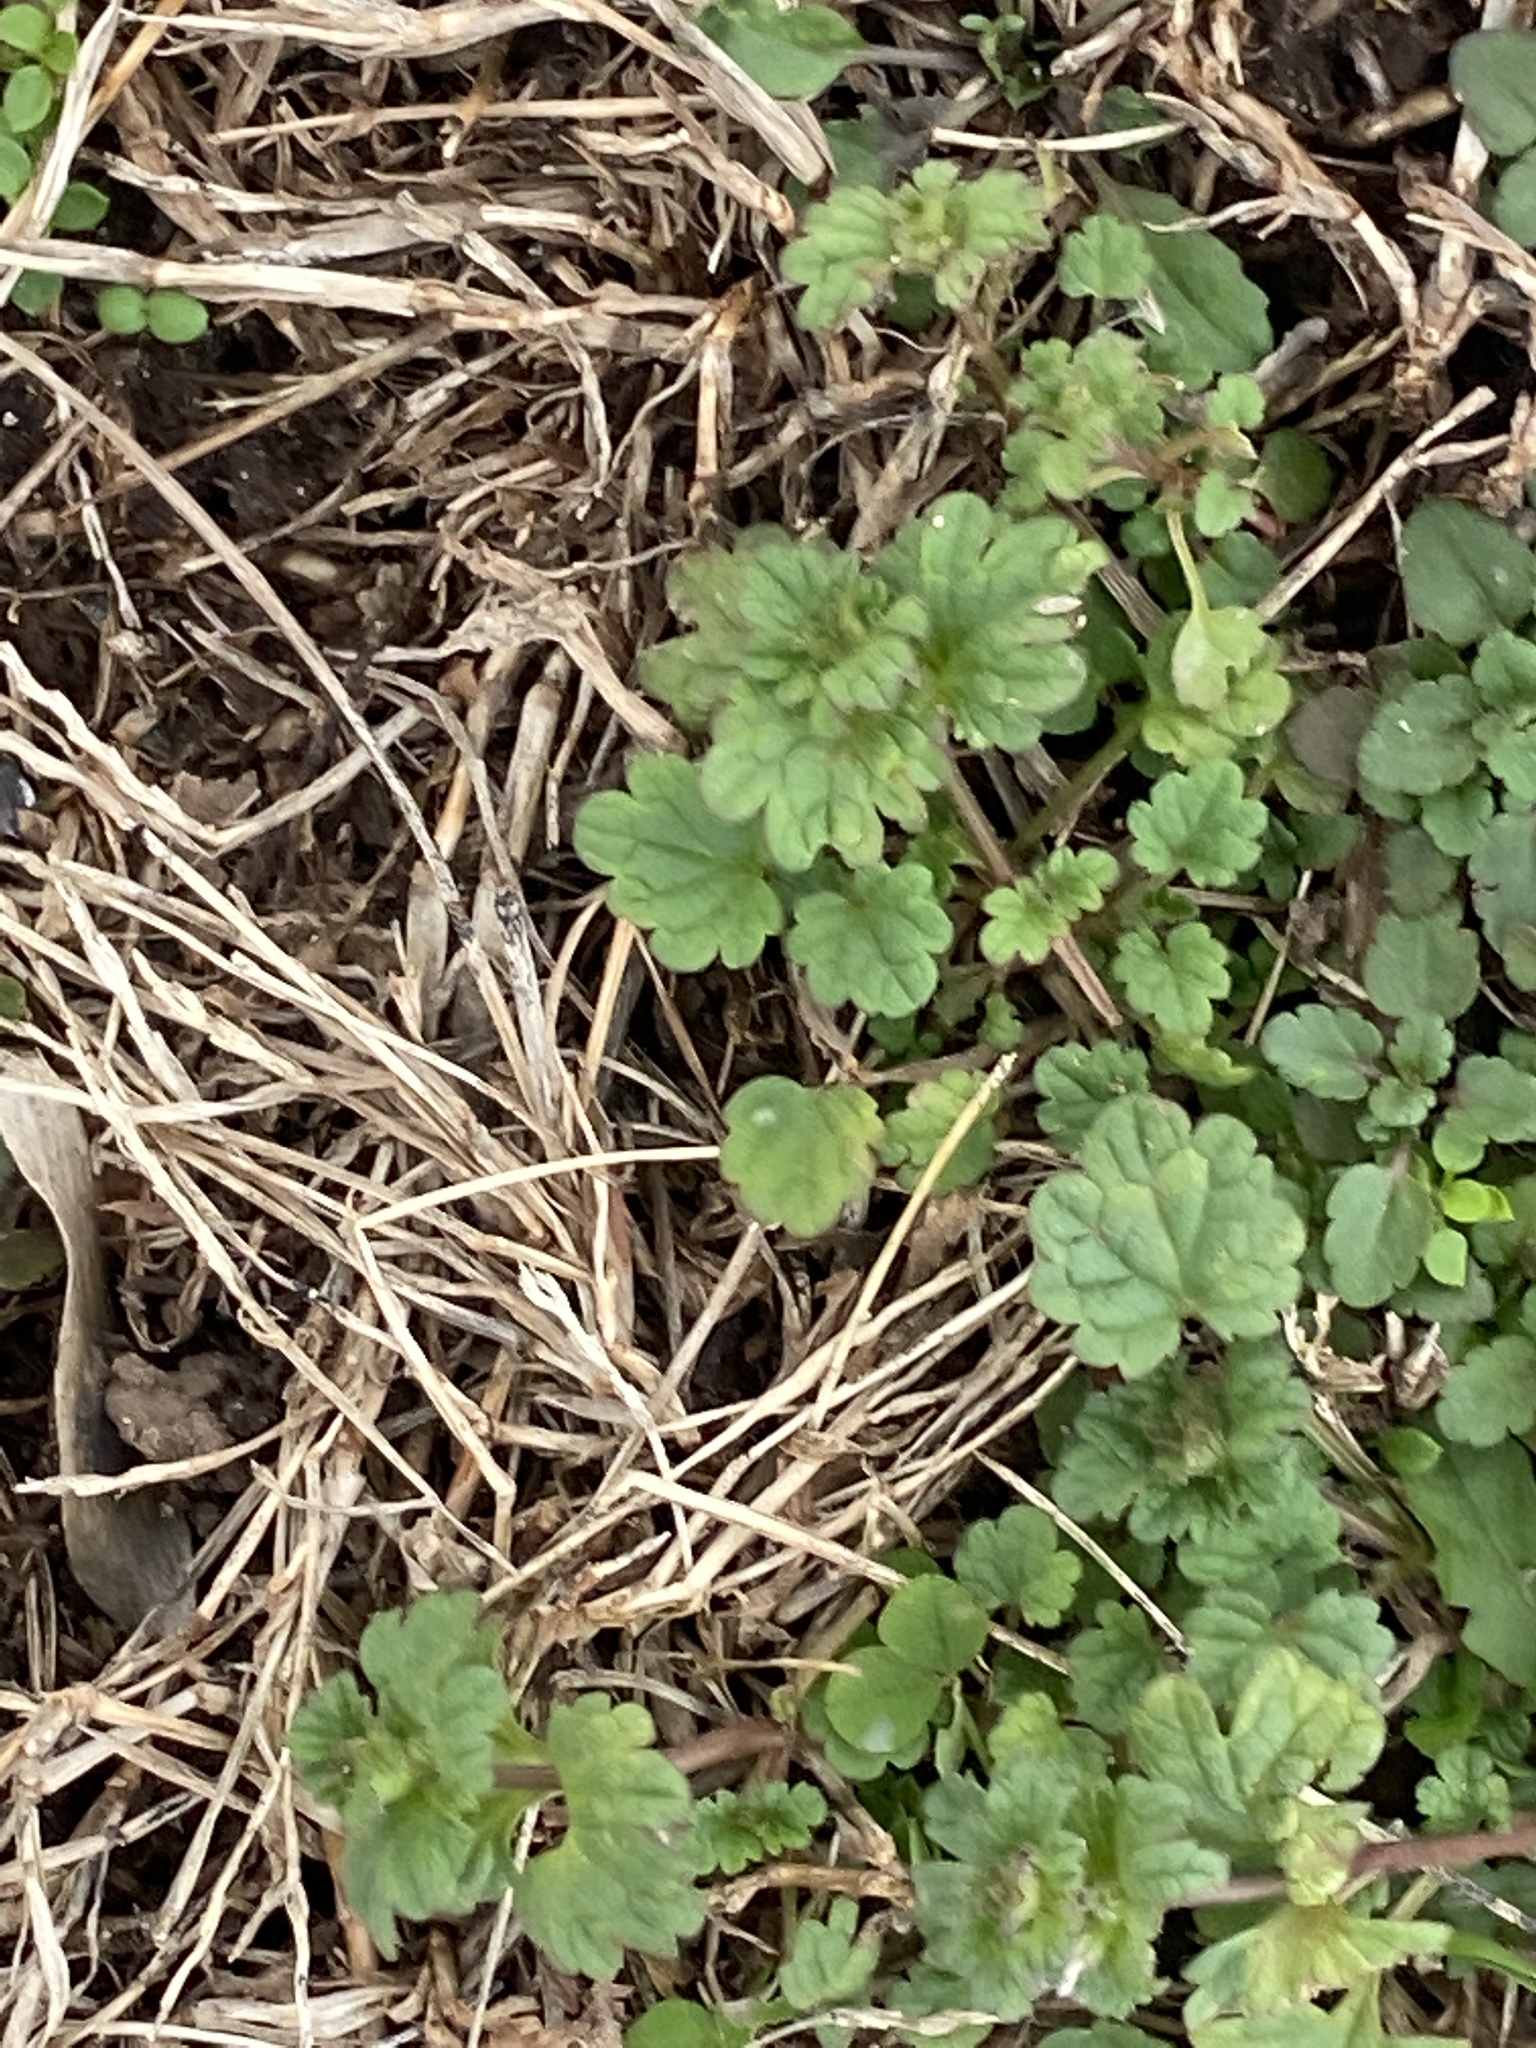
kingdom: Plantae
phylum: Tracheophyta
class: Magnoliopsida
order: Lamiales
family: Lamiaceae
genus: Lamium
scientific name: Lamium amplexicaule
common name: Henbit dead-nettle
